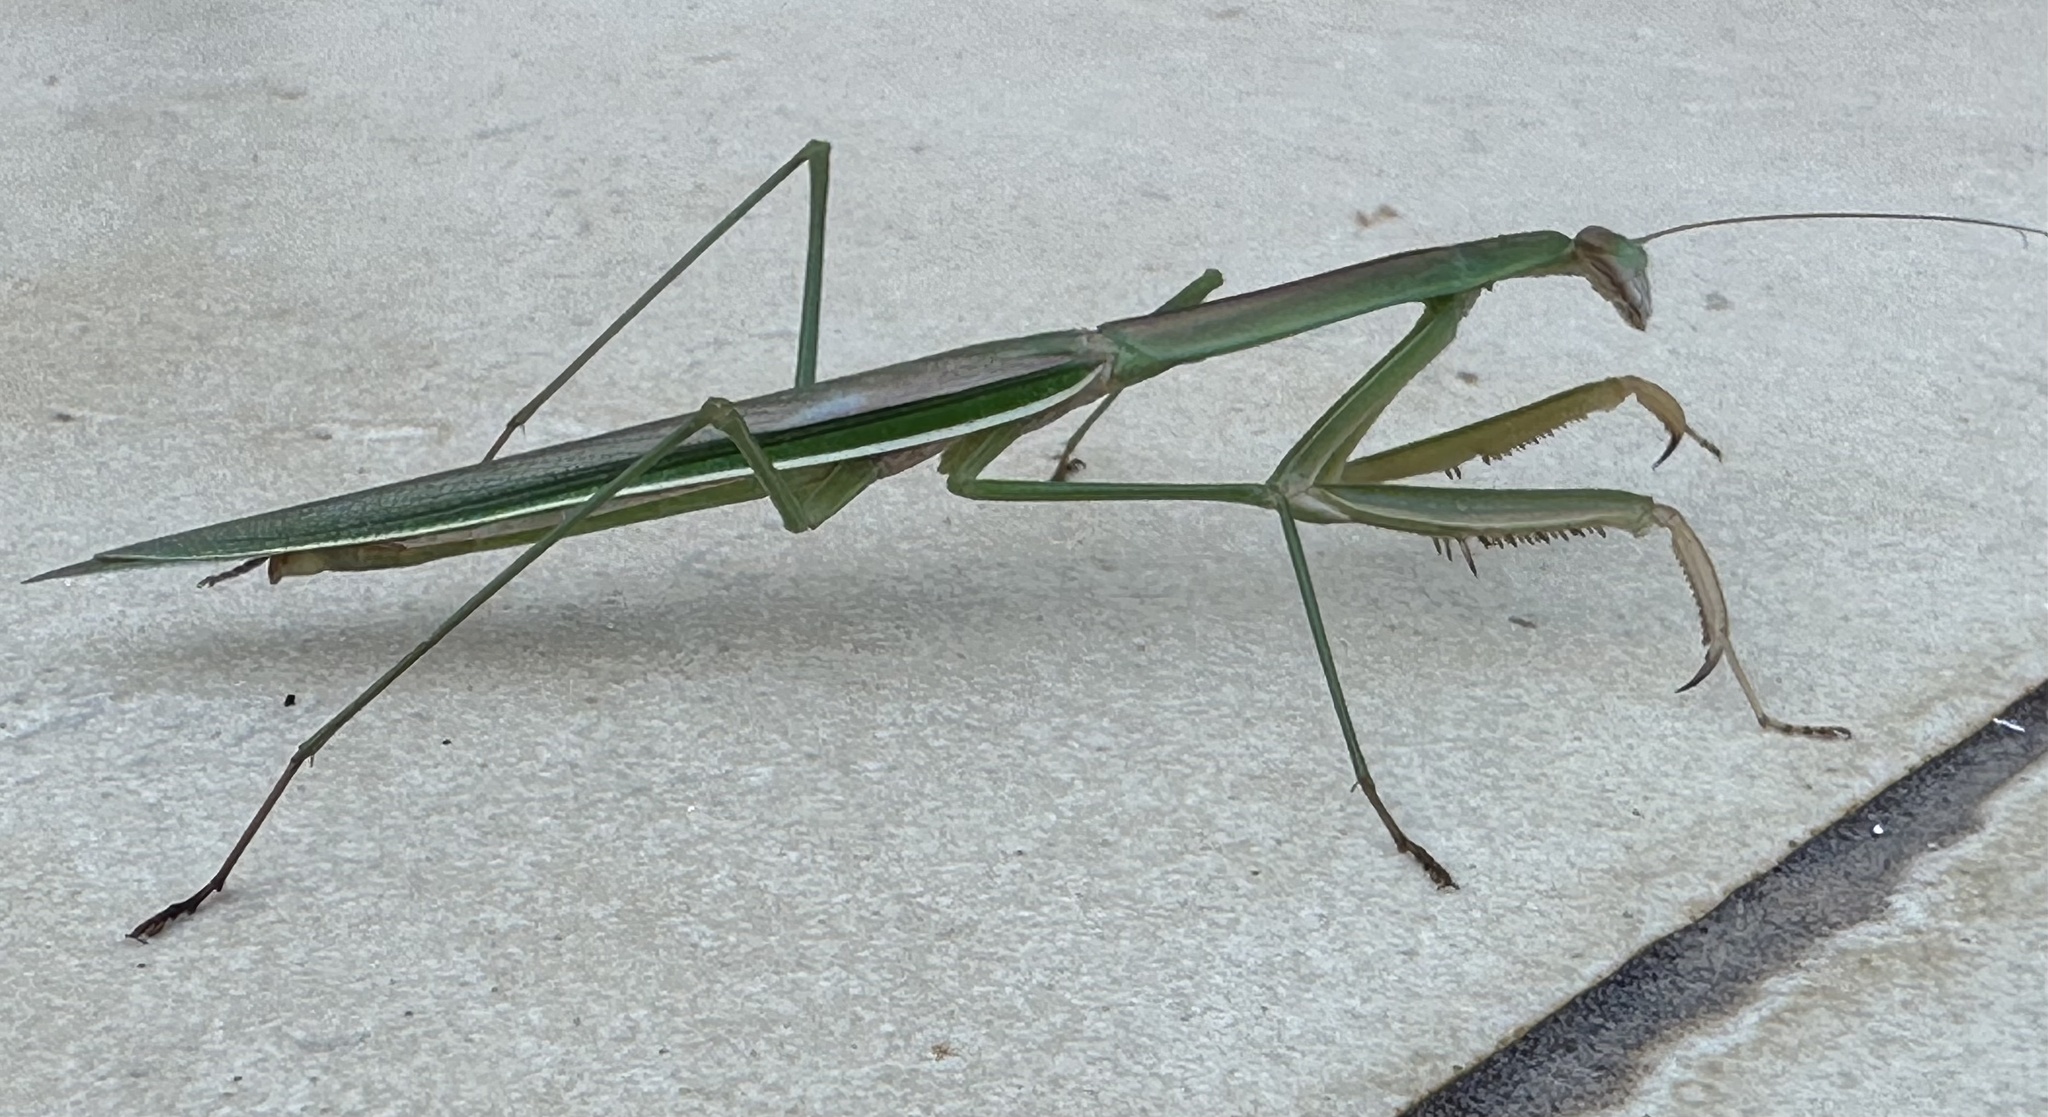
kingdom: Animalia
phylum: Arthropoda
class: Insecta
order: Mantodea
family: Mantidae
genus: Tenodera
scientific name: Tenodera australasiae
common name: Purple-winged mantis
